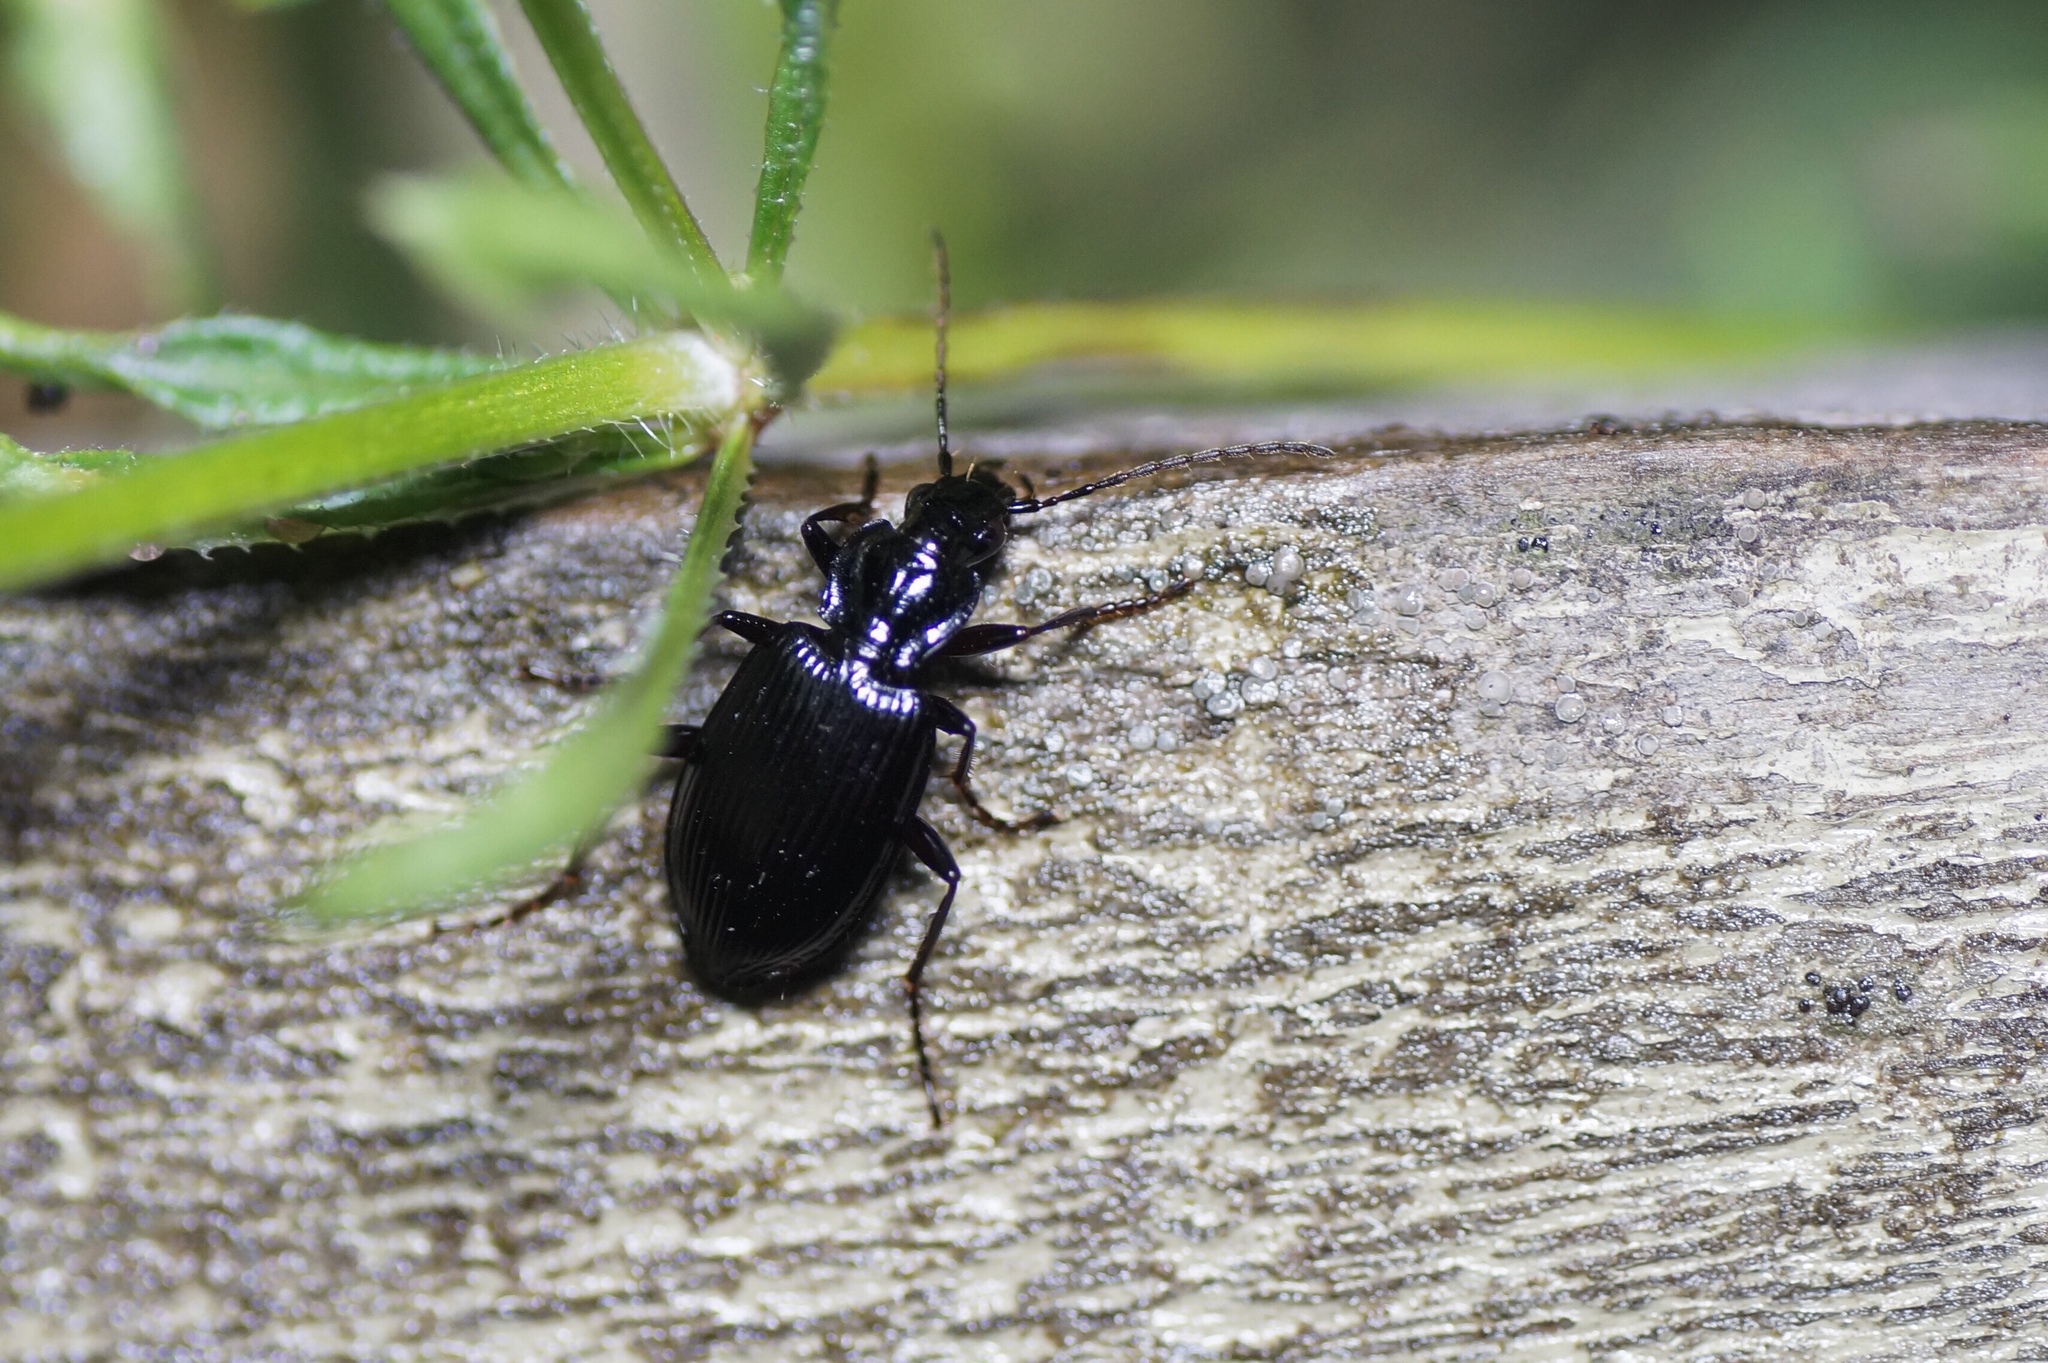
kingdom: Animalia
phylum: Arthropoda
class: Insecta
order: Coleoptera
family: Carabidae
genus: Platynus
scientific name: Platynus assimilis
